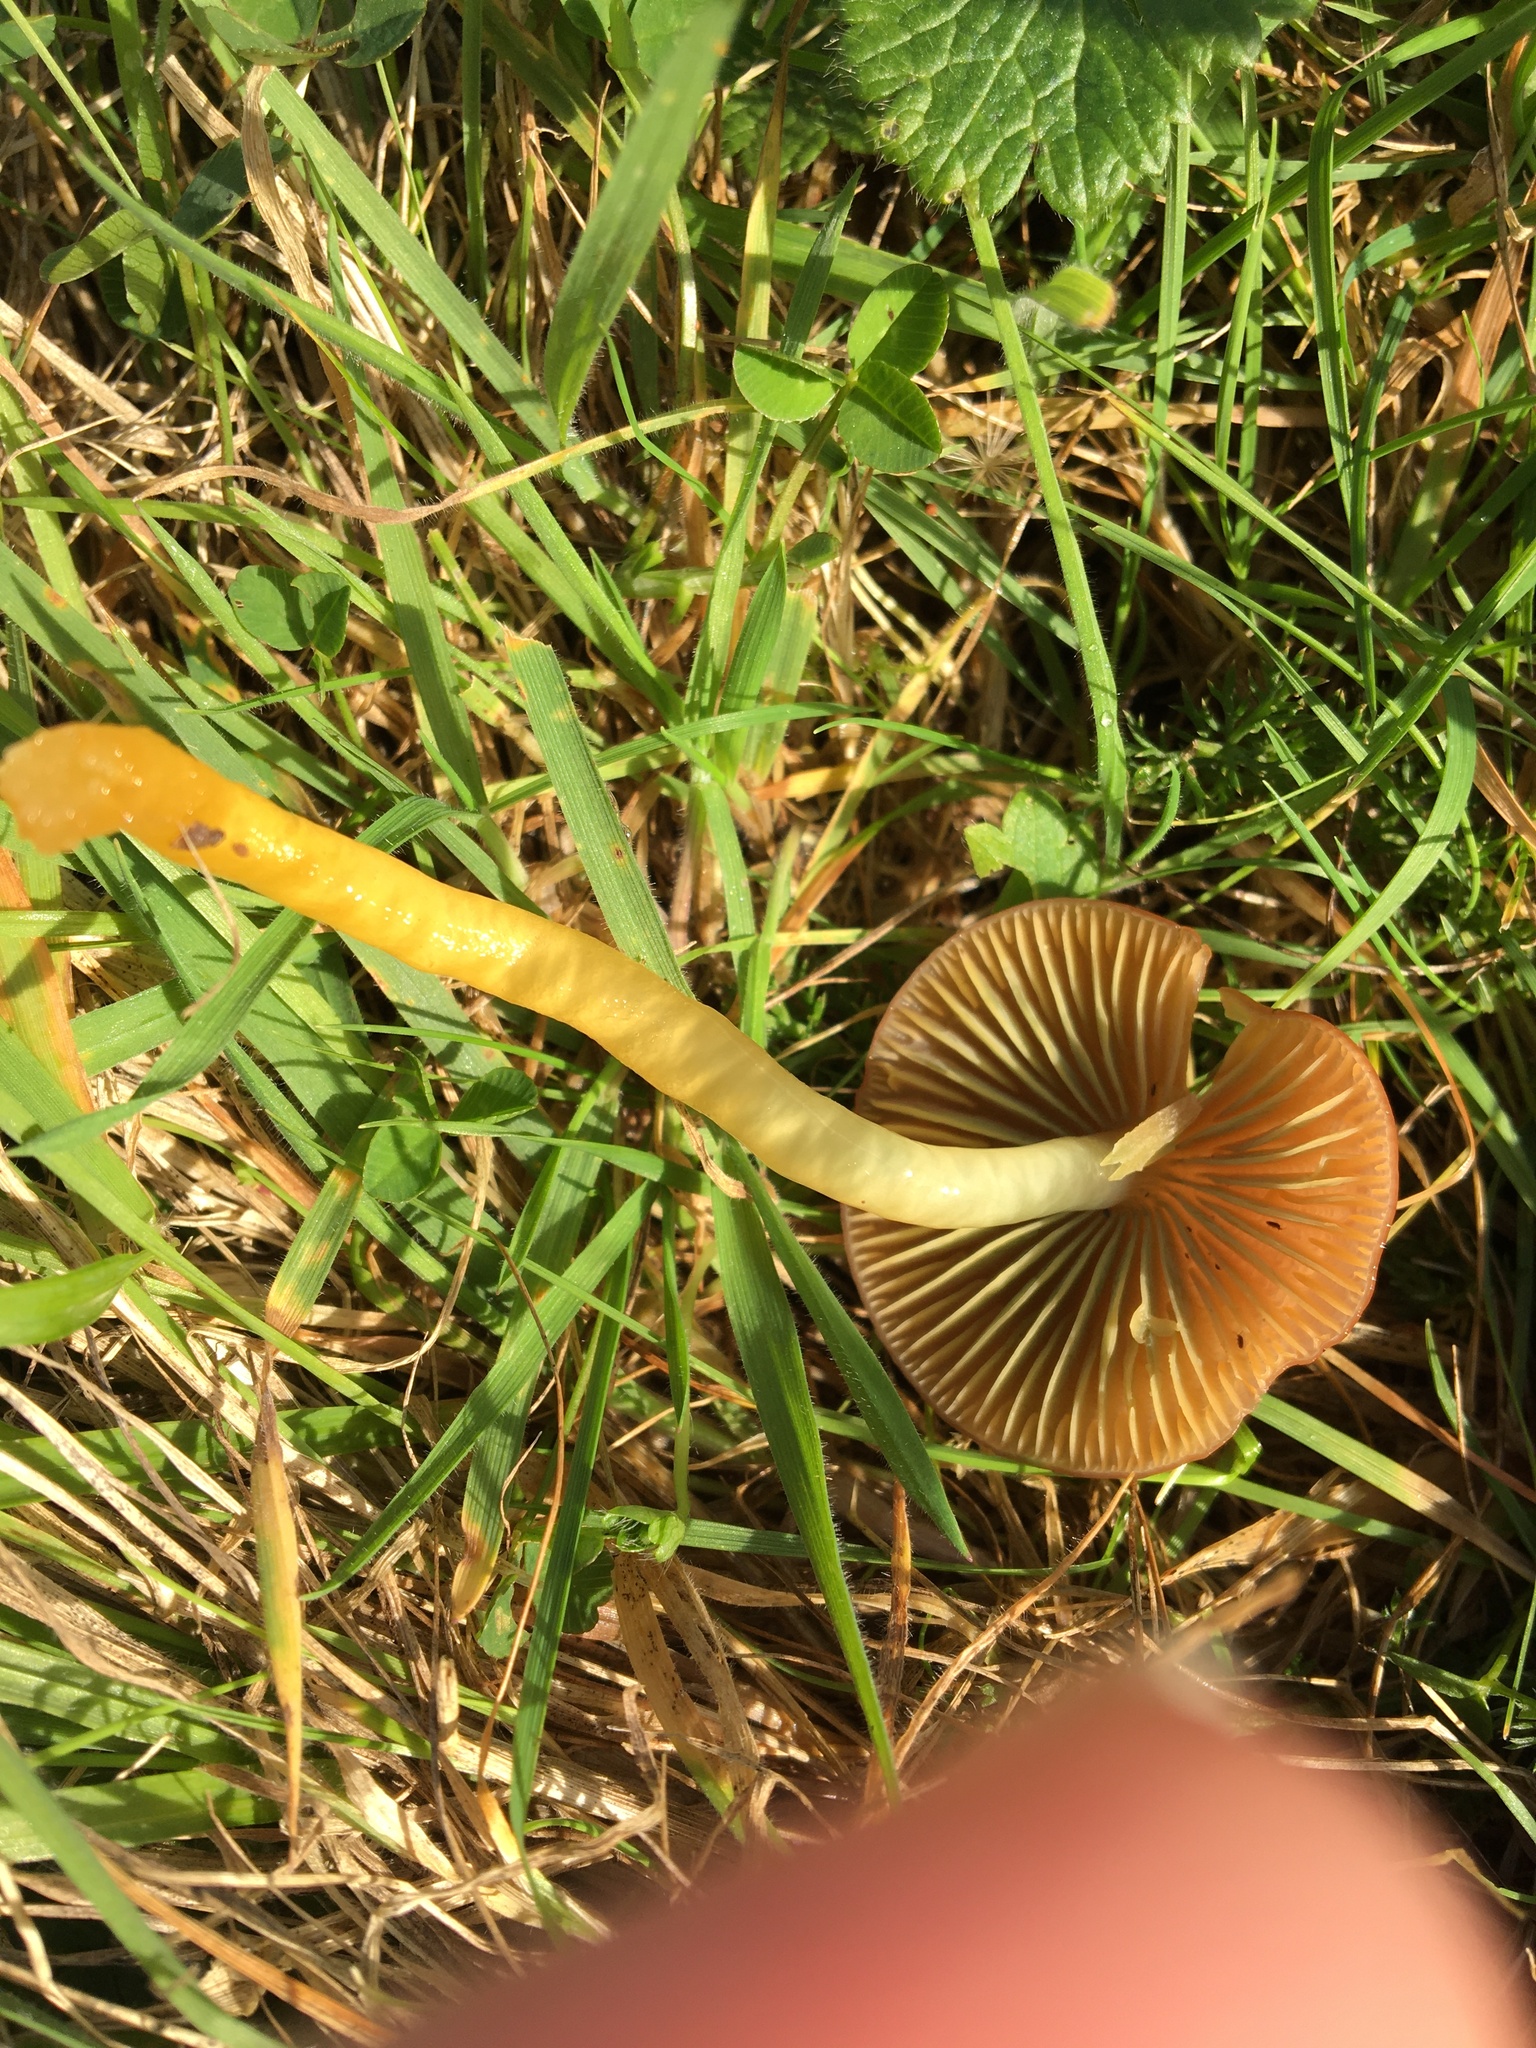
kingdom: Fungi
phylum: Basidiomycota
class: Agaricomycetes
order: Agaricales
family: Hygrophoraceae
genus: Gliophorus
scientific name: Gliophorus psittacinus
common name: Parrot wax-cap
